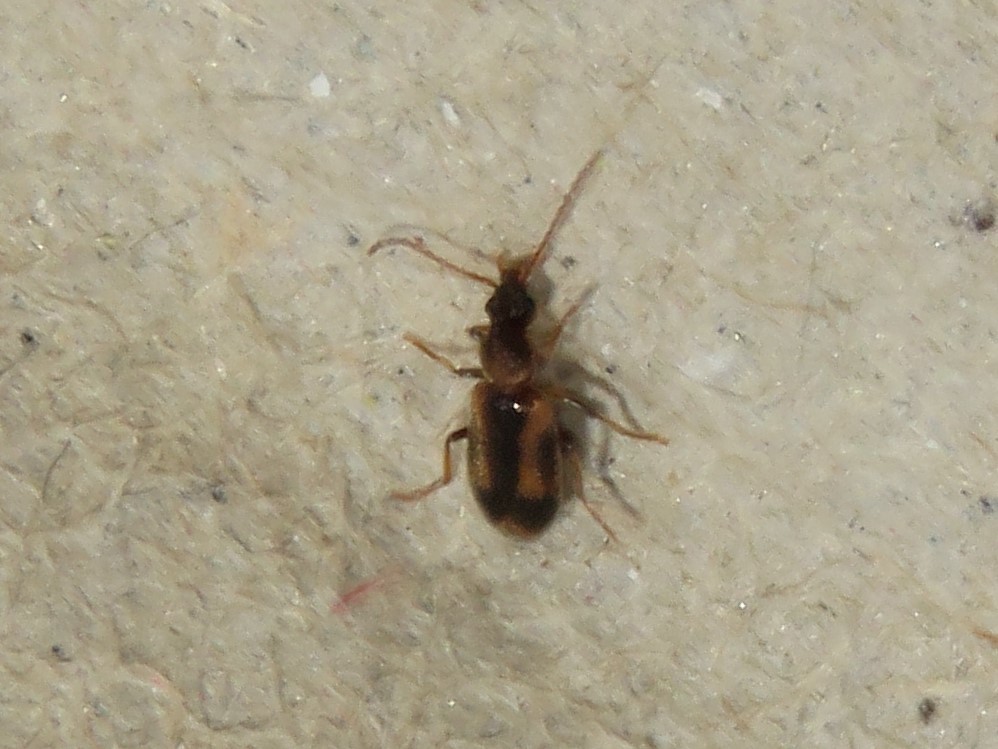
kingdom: Animalia
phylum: Arthropoda
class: Insecta
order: Coleoptera
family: Anthicidae
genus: Notoxus
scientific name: Notoxus anchora
